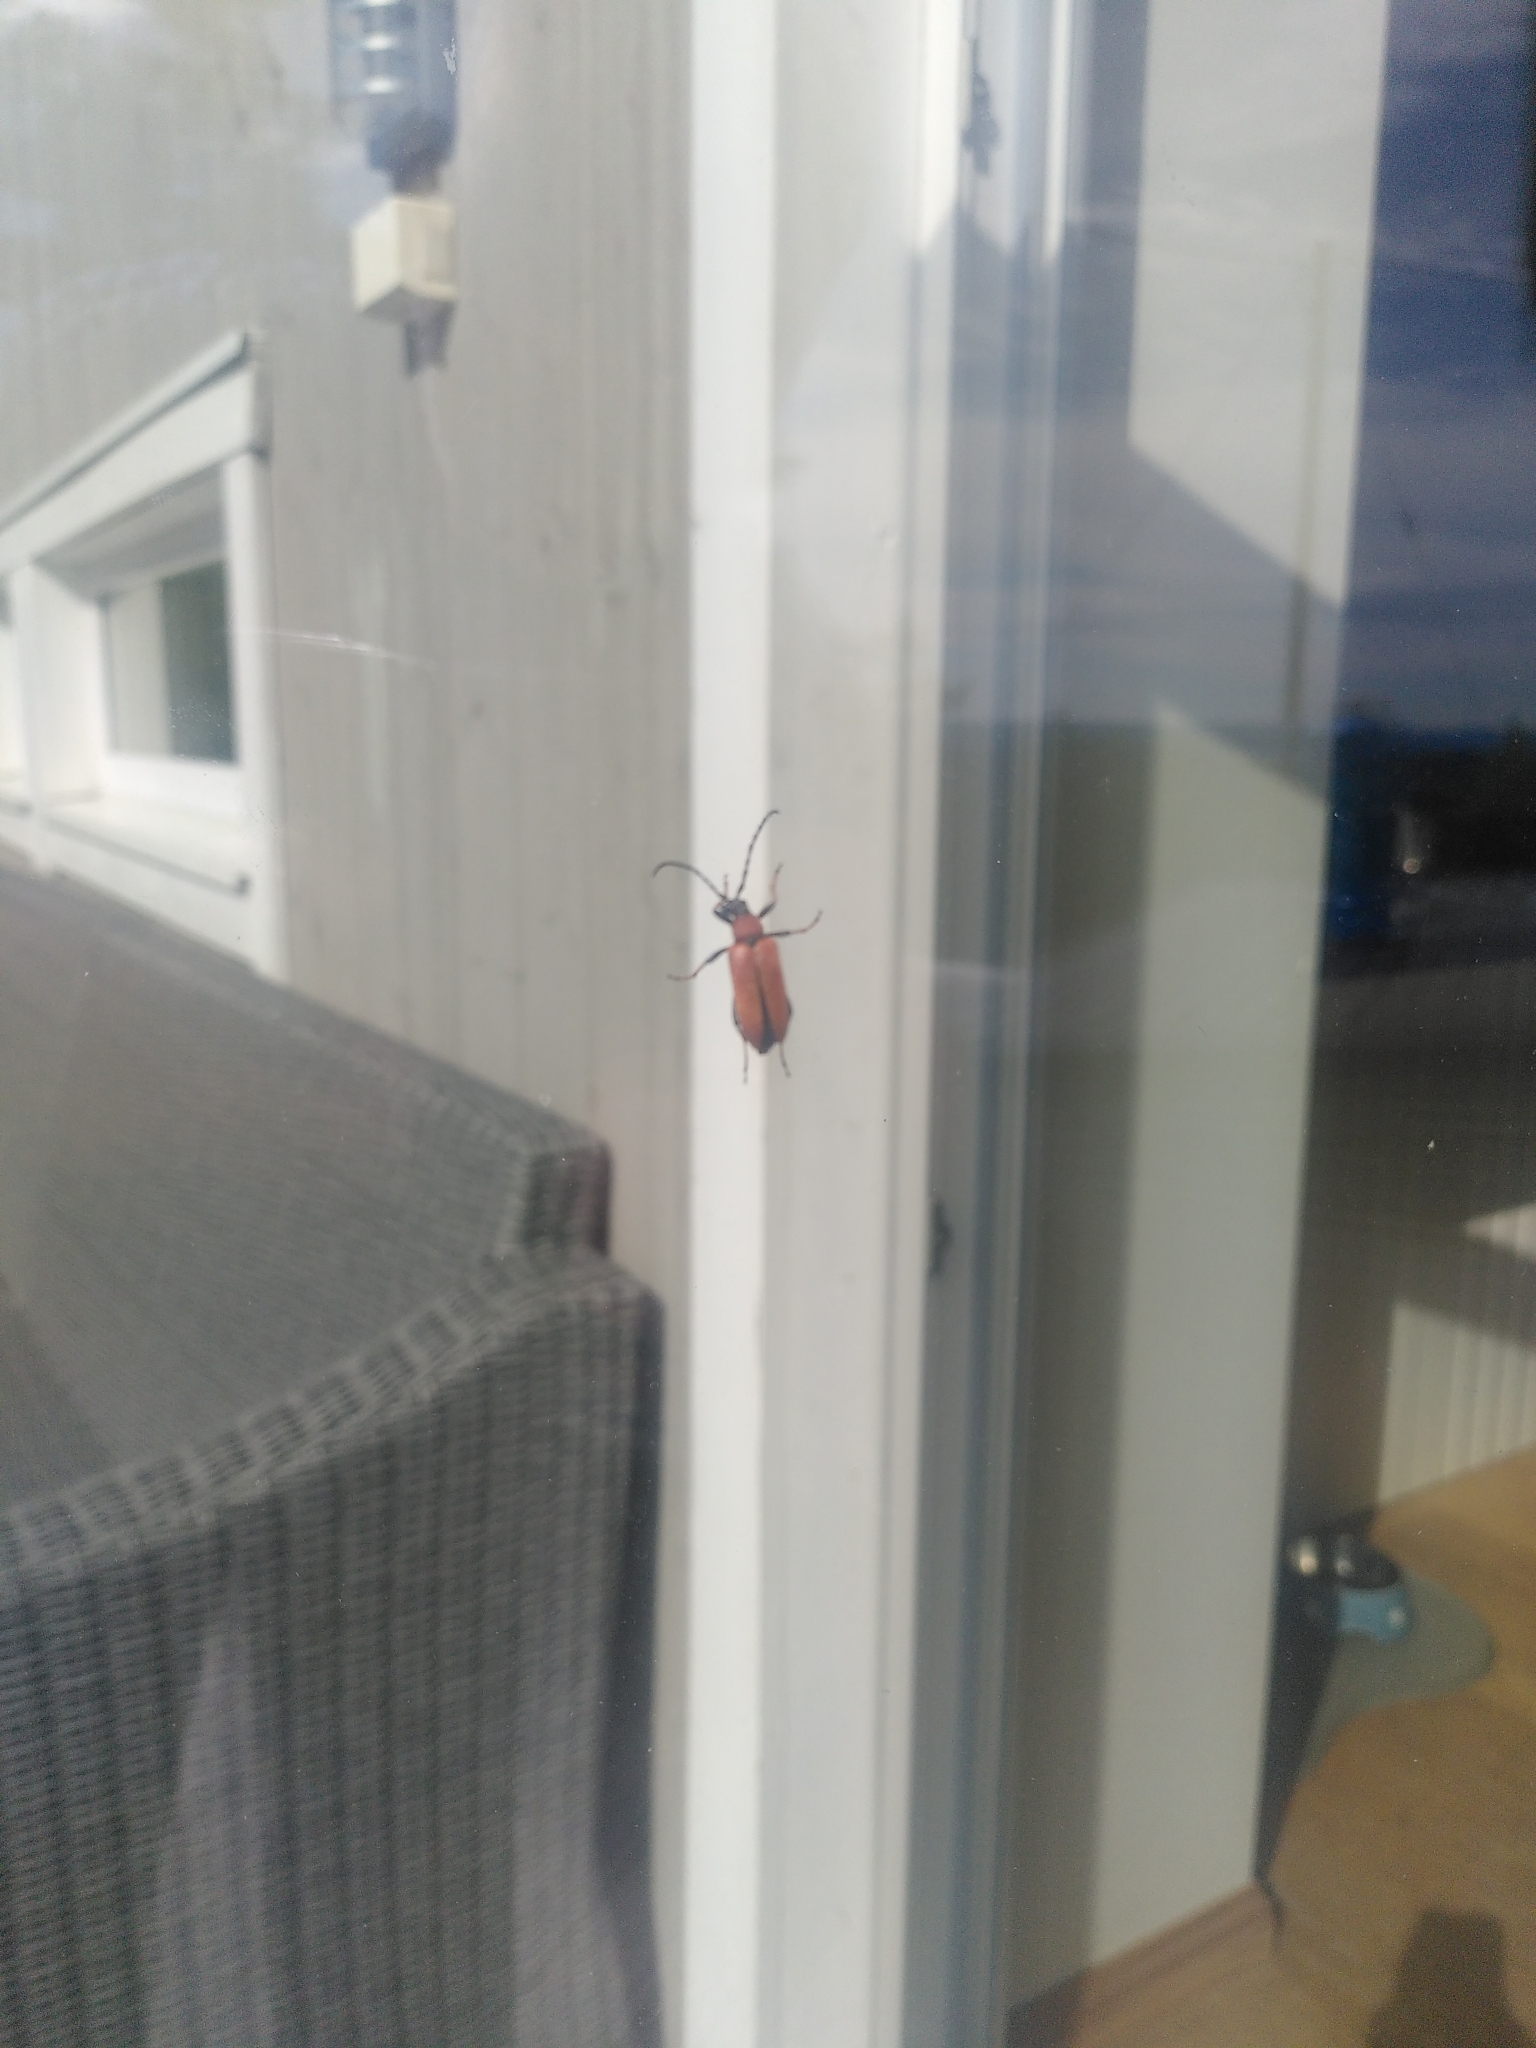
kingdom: Animalia
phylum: Arthropoda
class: Insecta
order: Coleoptera
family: Cerambycidae
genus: Stictoleptura
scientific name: Stictoleptura rubra
